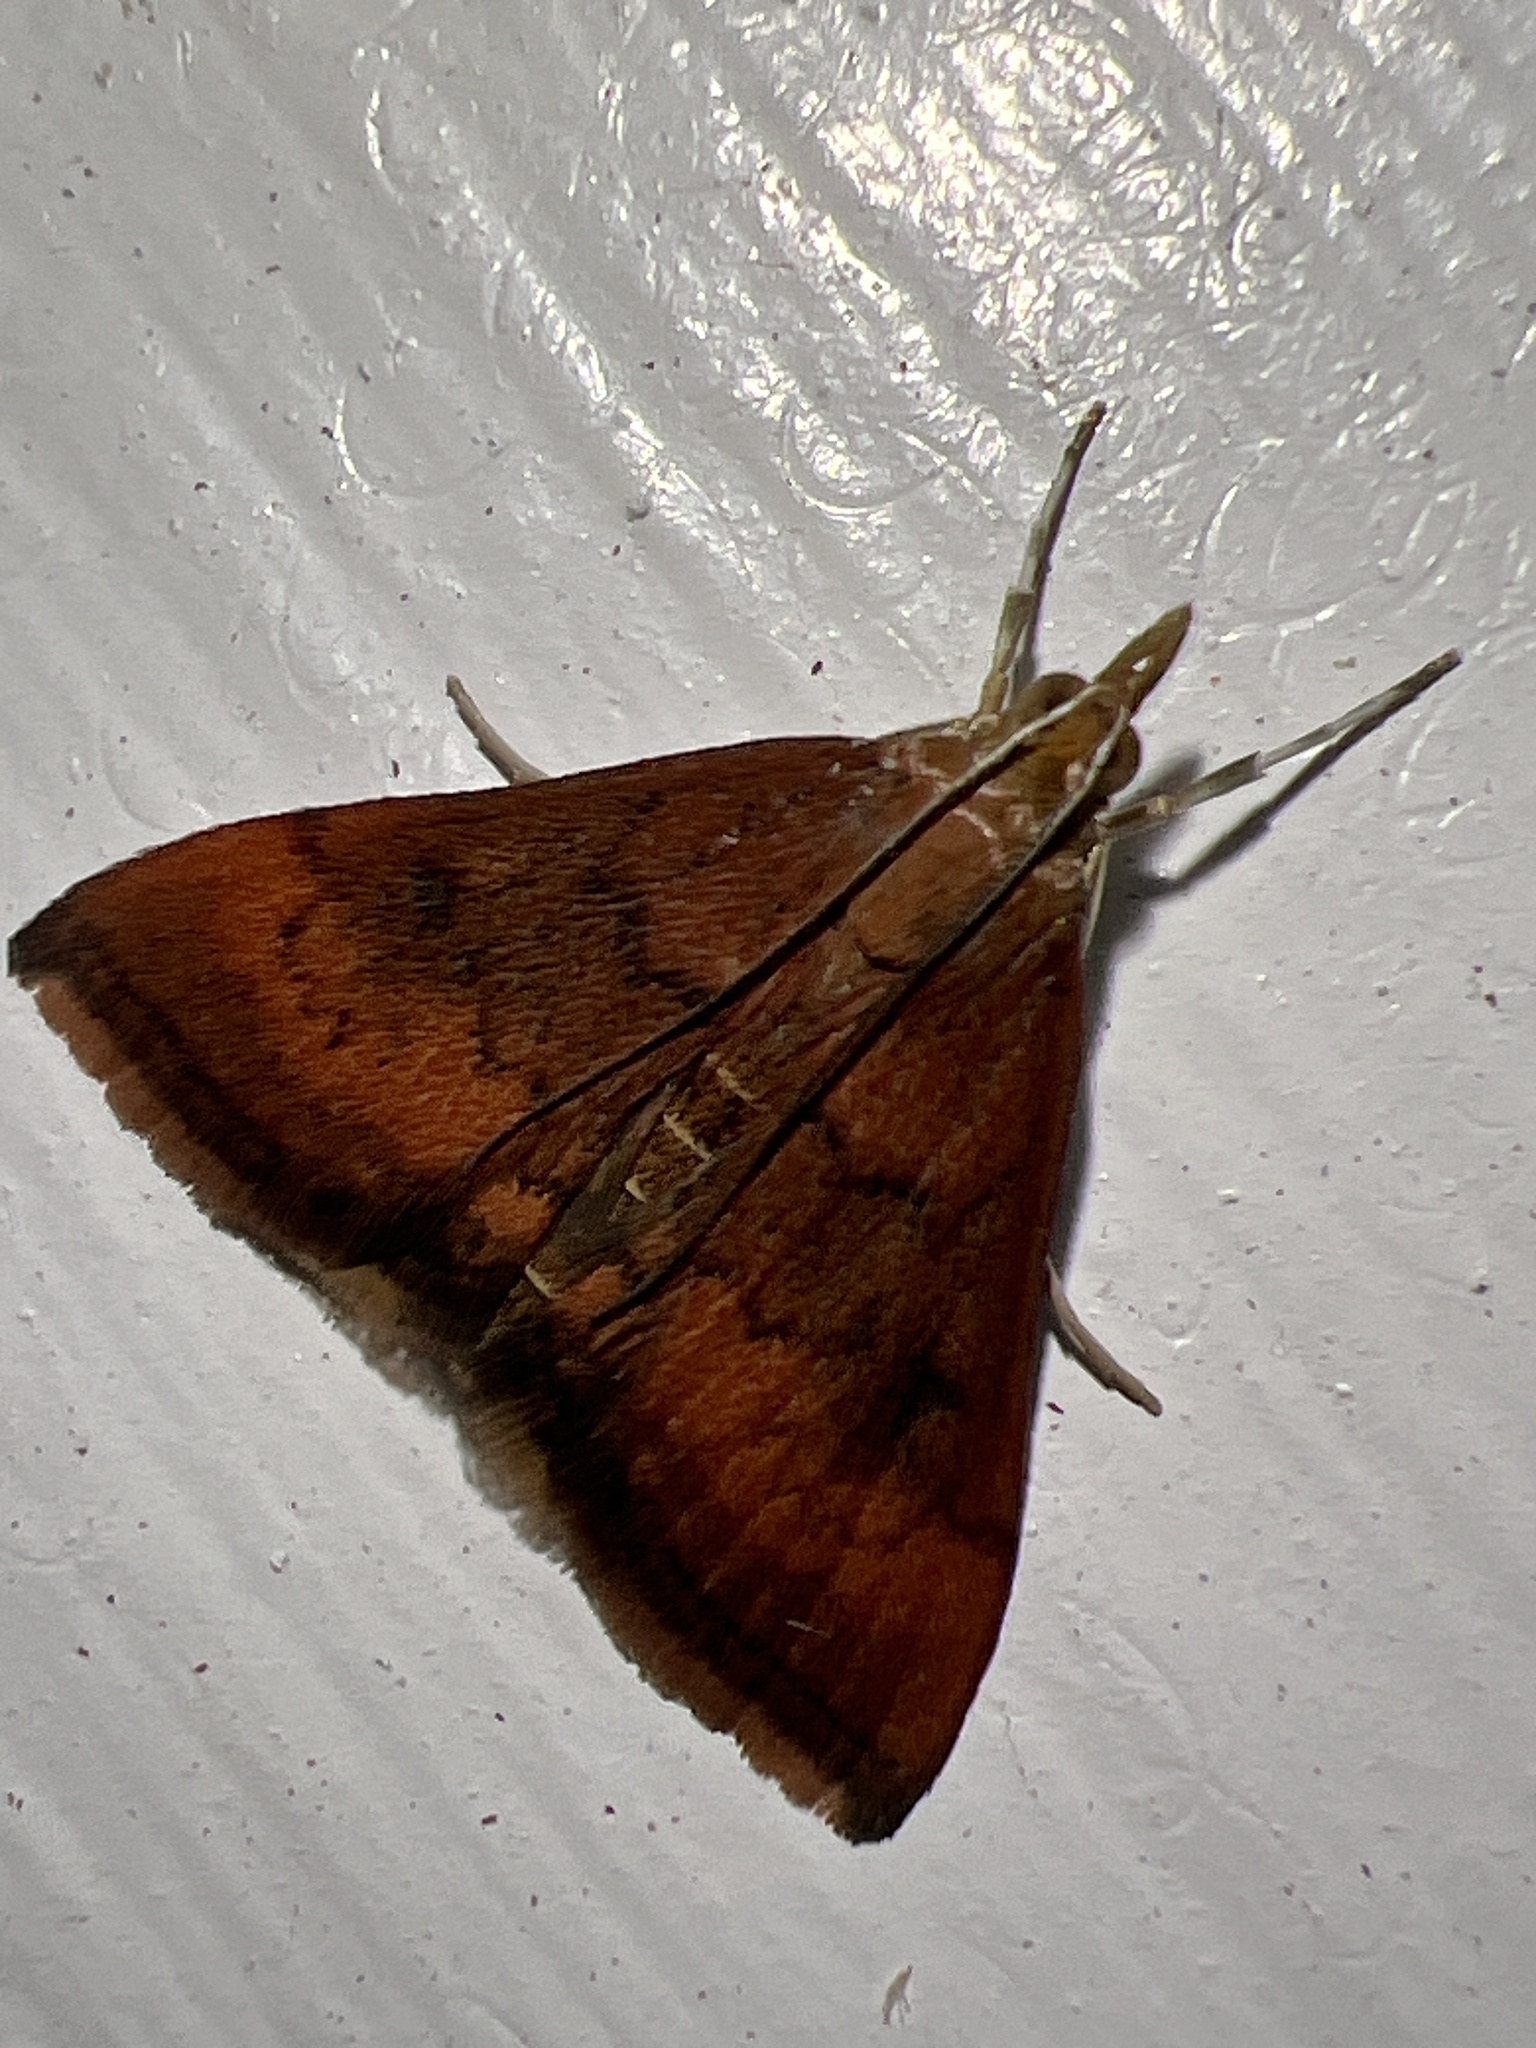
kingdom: Animalia
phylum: Arthropoda
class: Insecta
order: Lepidoptera
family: Crambidae
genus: Pyrausta
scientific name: Pyrausta rubricalis
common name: Variable reddish pyrausta
